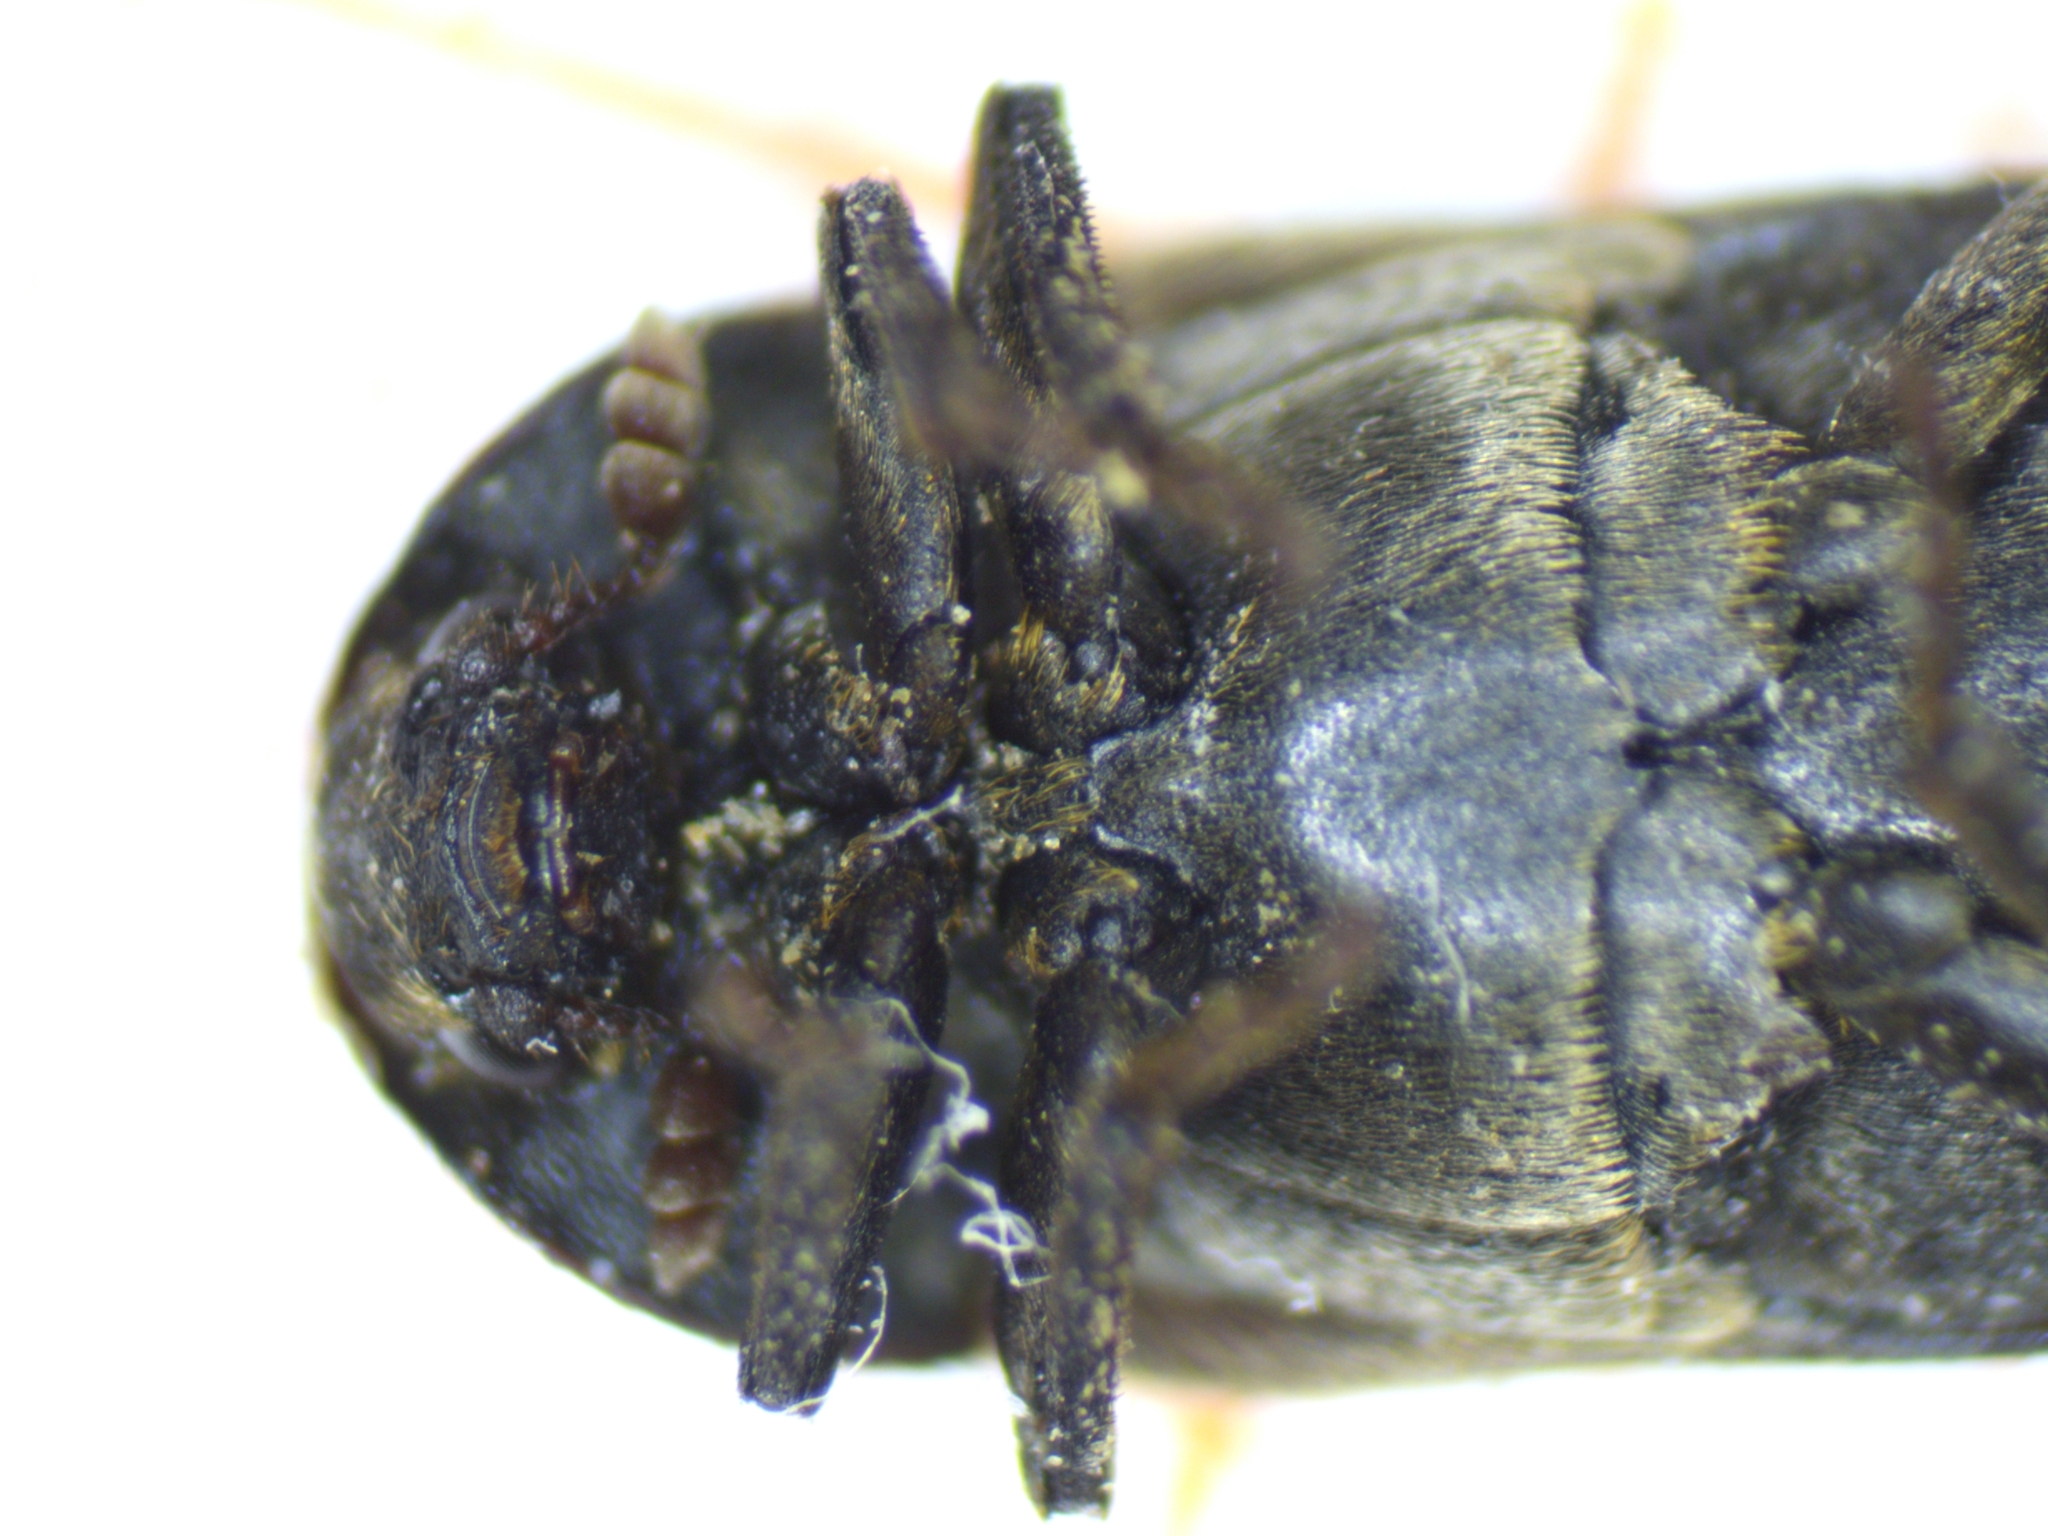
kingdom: Animalia
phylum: Arthropoda
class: Insecta
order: Coleoptera
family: Dermestidae
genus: Dermestes
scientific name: Dermestes lardarius
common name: Larder beetle
